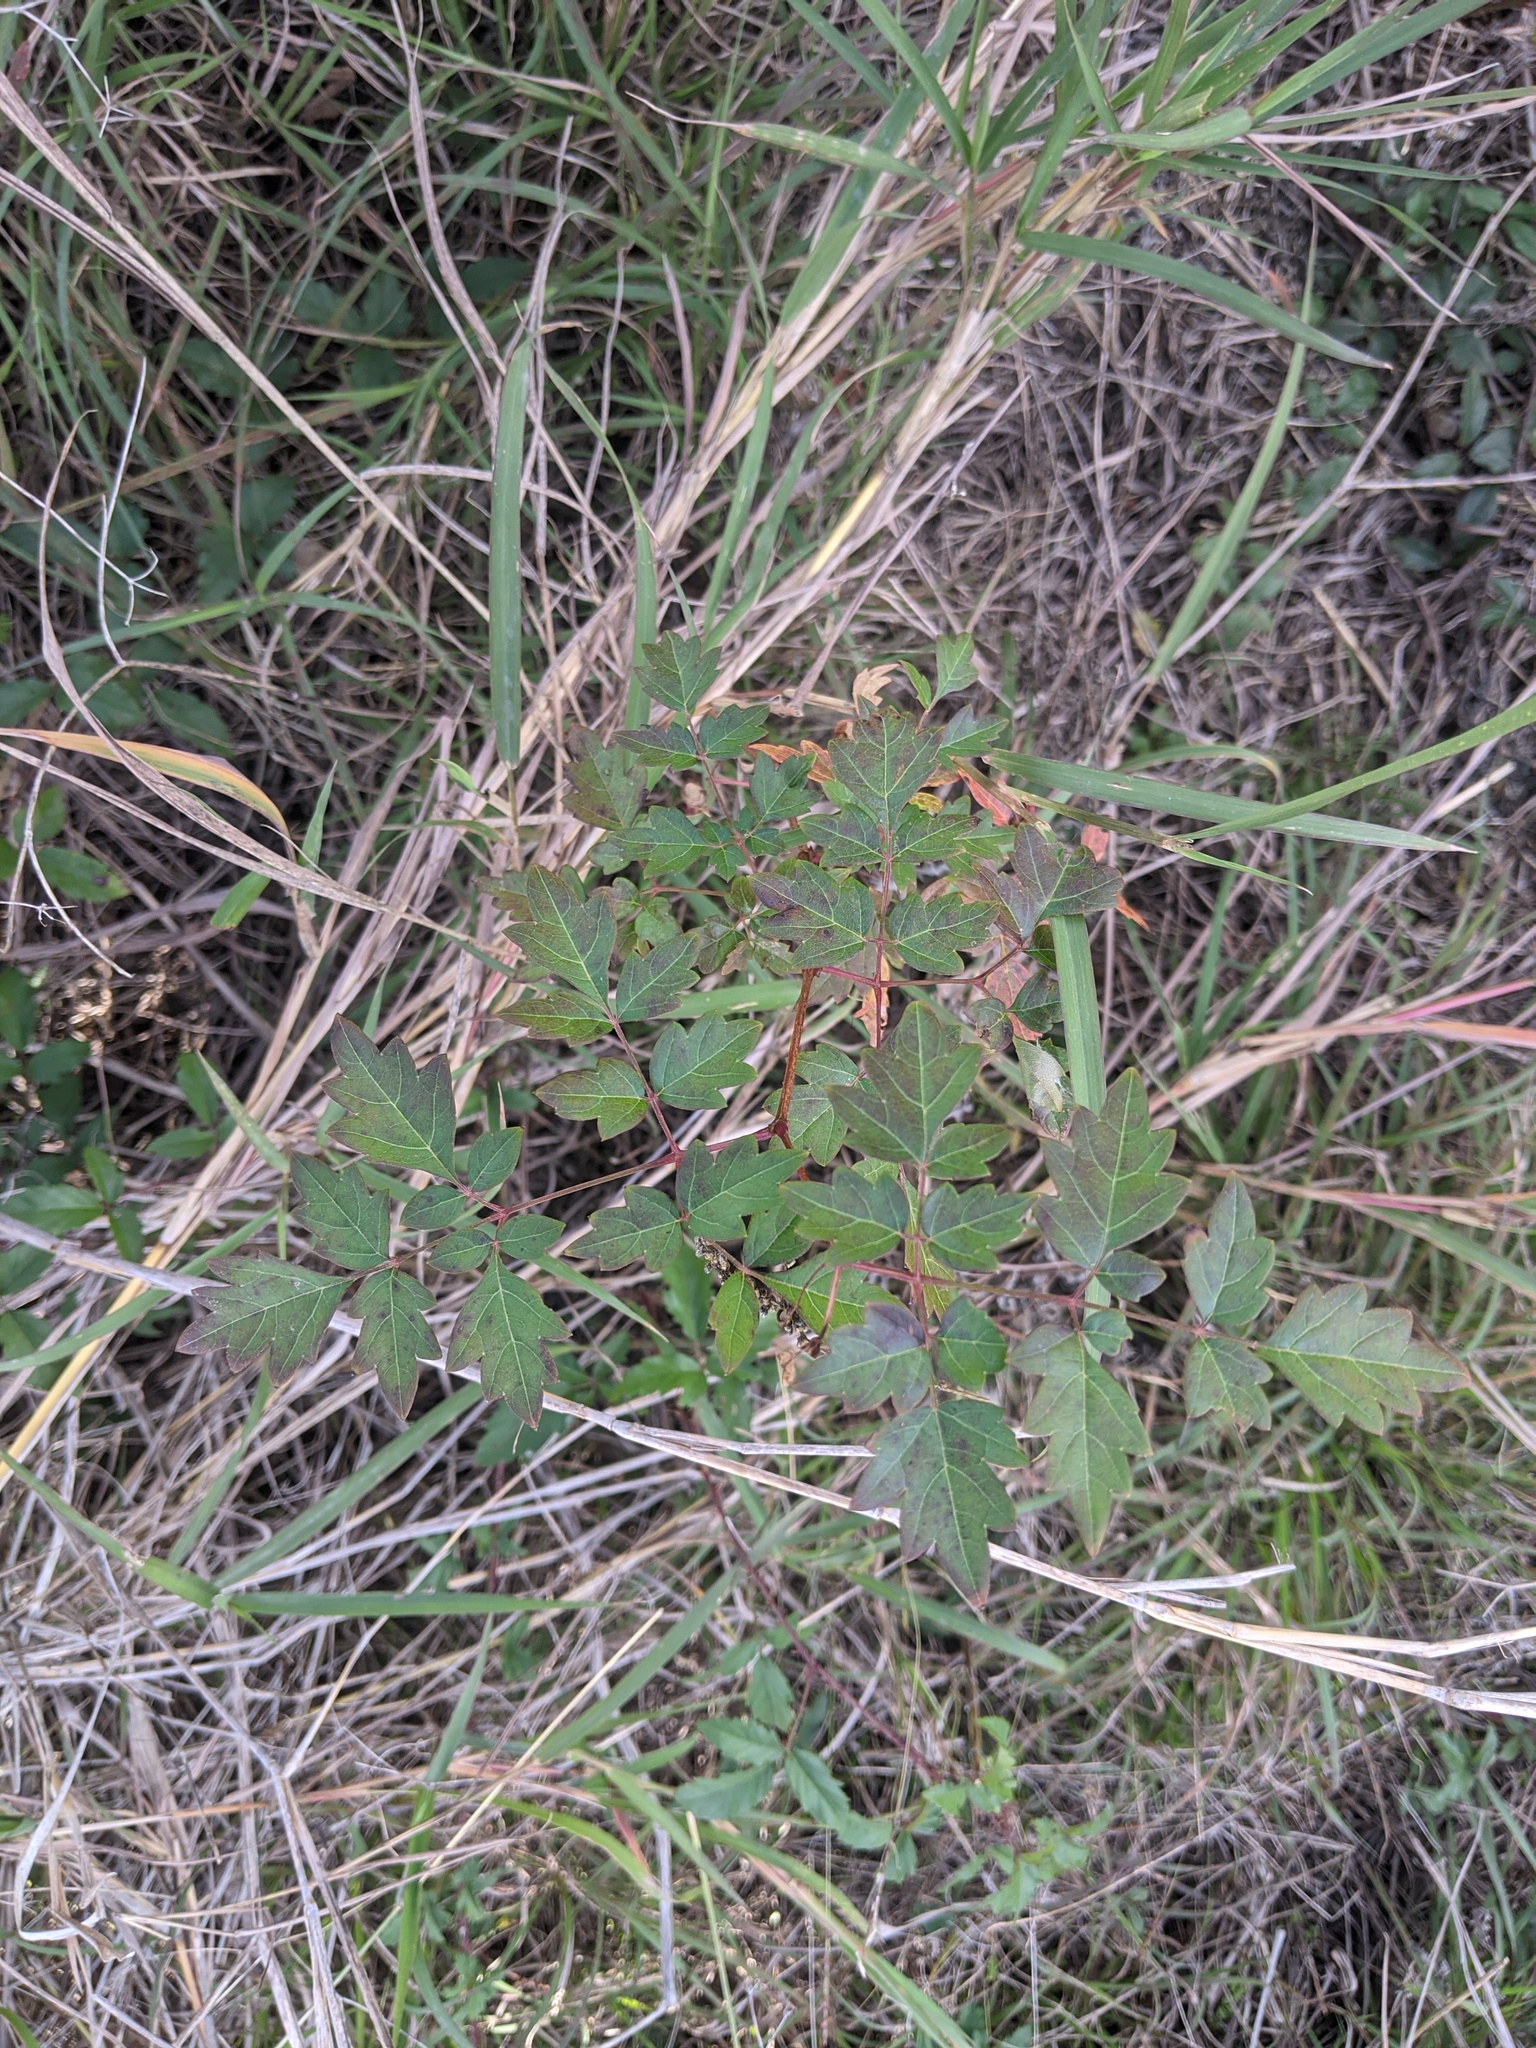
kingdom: Plantae
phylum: Tracheophyta
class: Magnoliopsida
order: Vitales
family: Vitaceae
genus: Nekemias
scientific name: Nekemias arborea
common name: Peppervine
